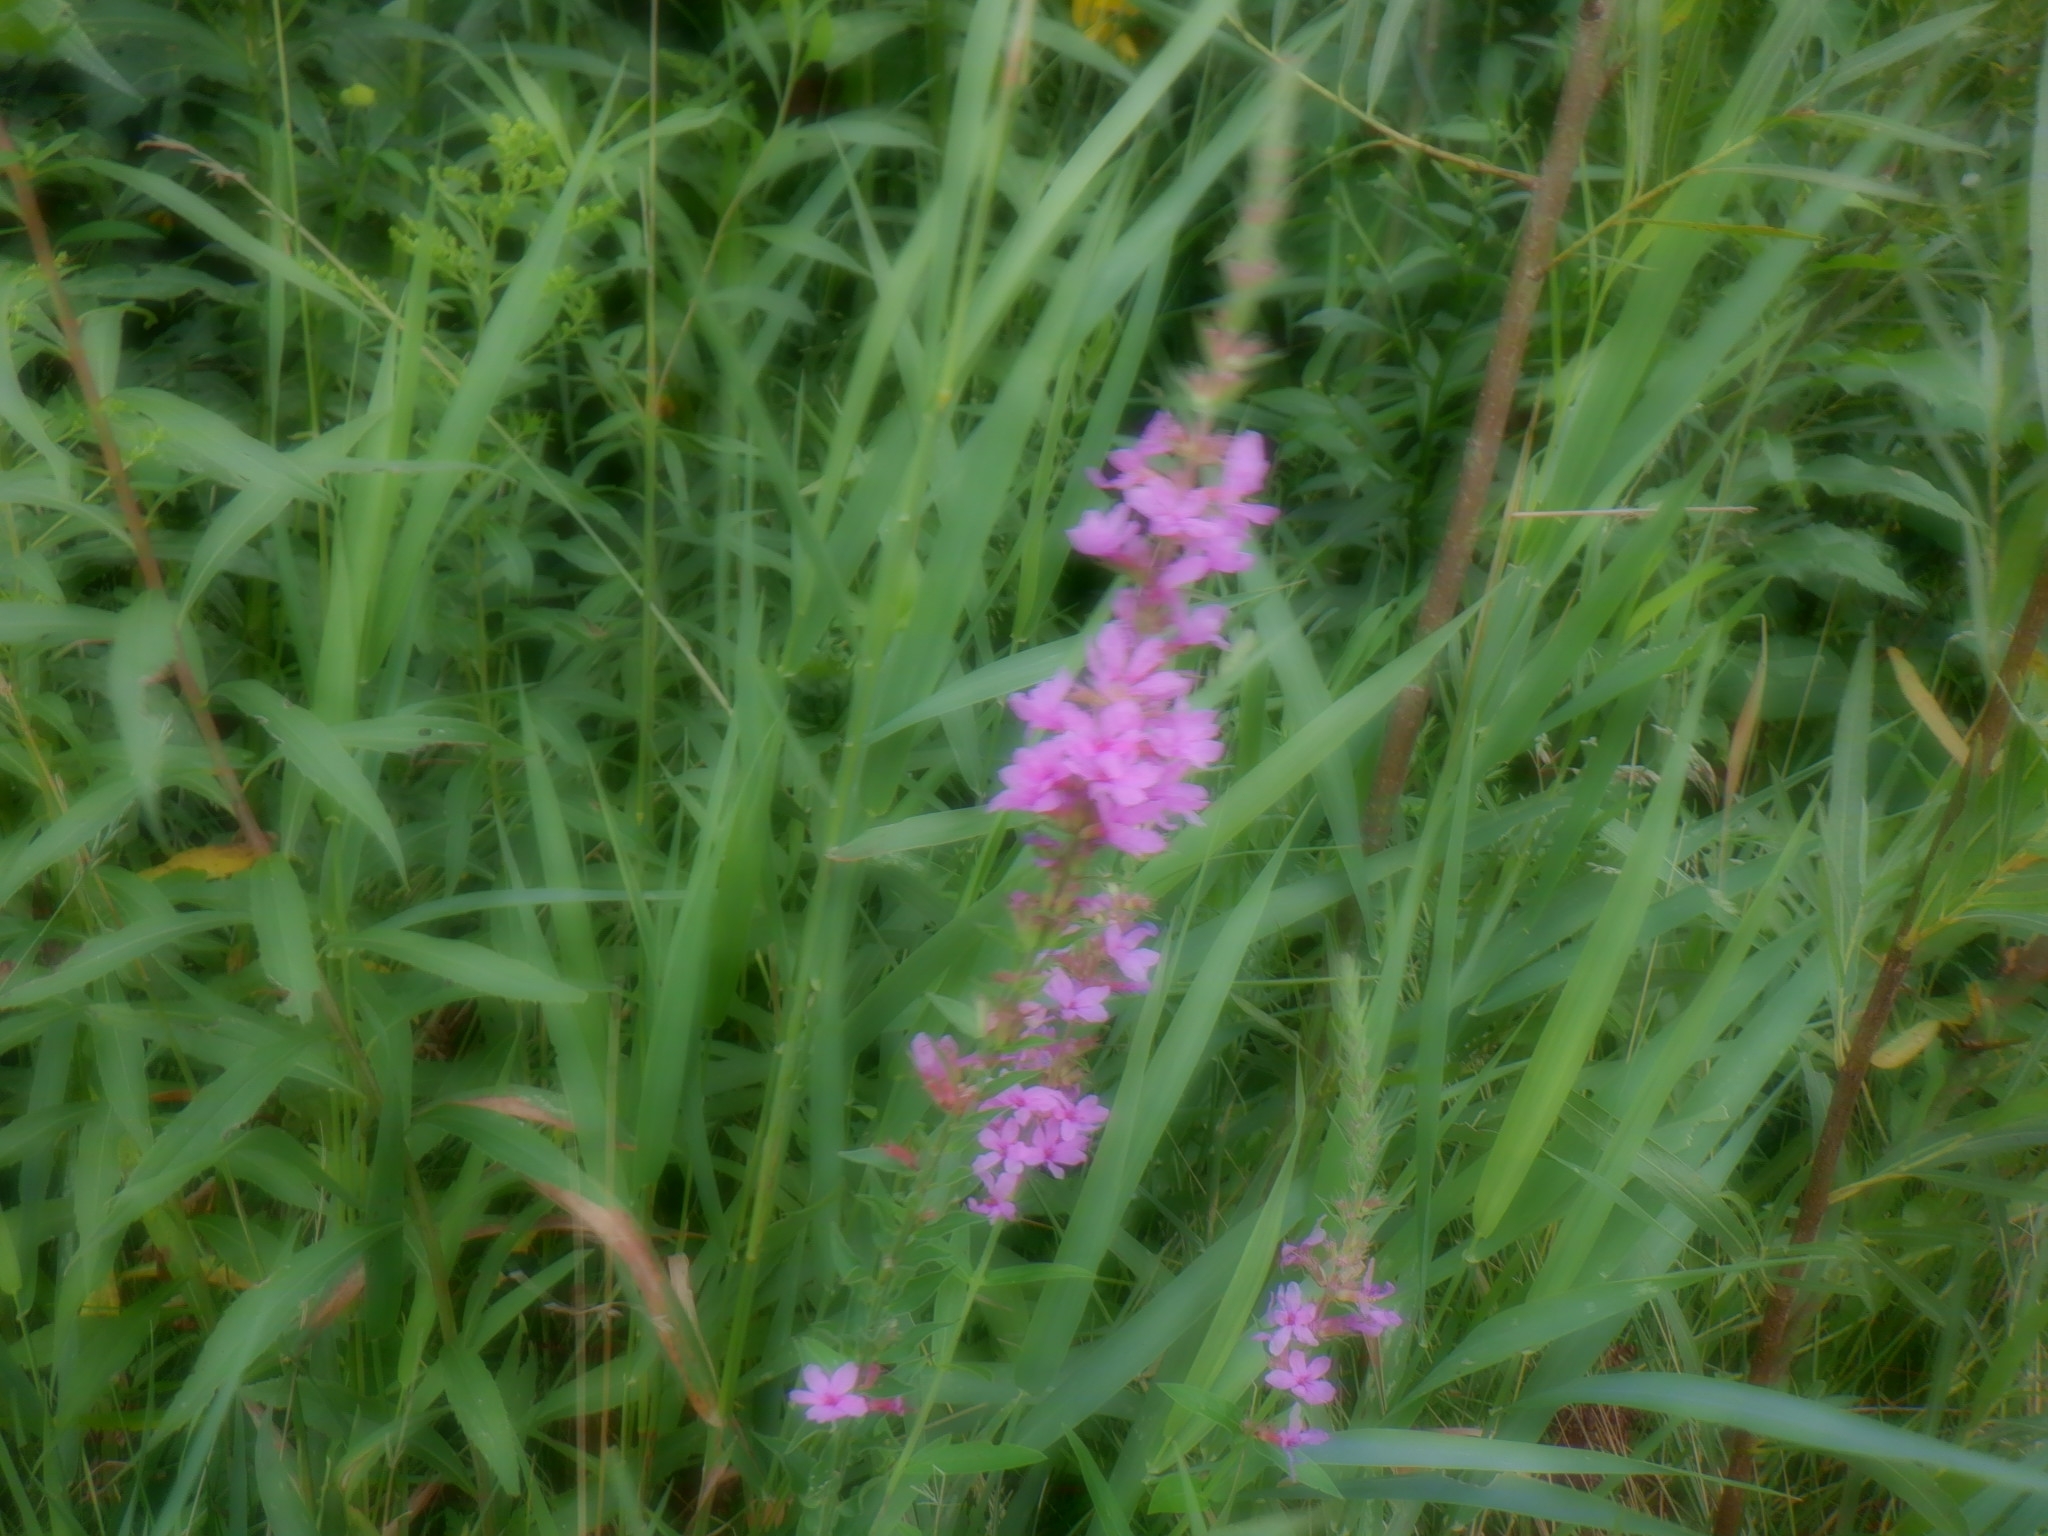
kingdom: Plantae
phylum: Tracheophyta
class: Magnoliopsida
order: Myrtales
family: Lythraceae
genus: Lythrum
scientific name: Lythrum salicaria
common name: Purple loosestrife
